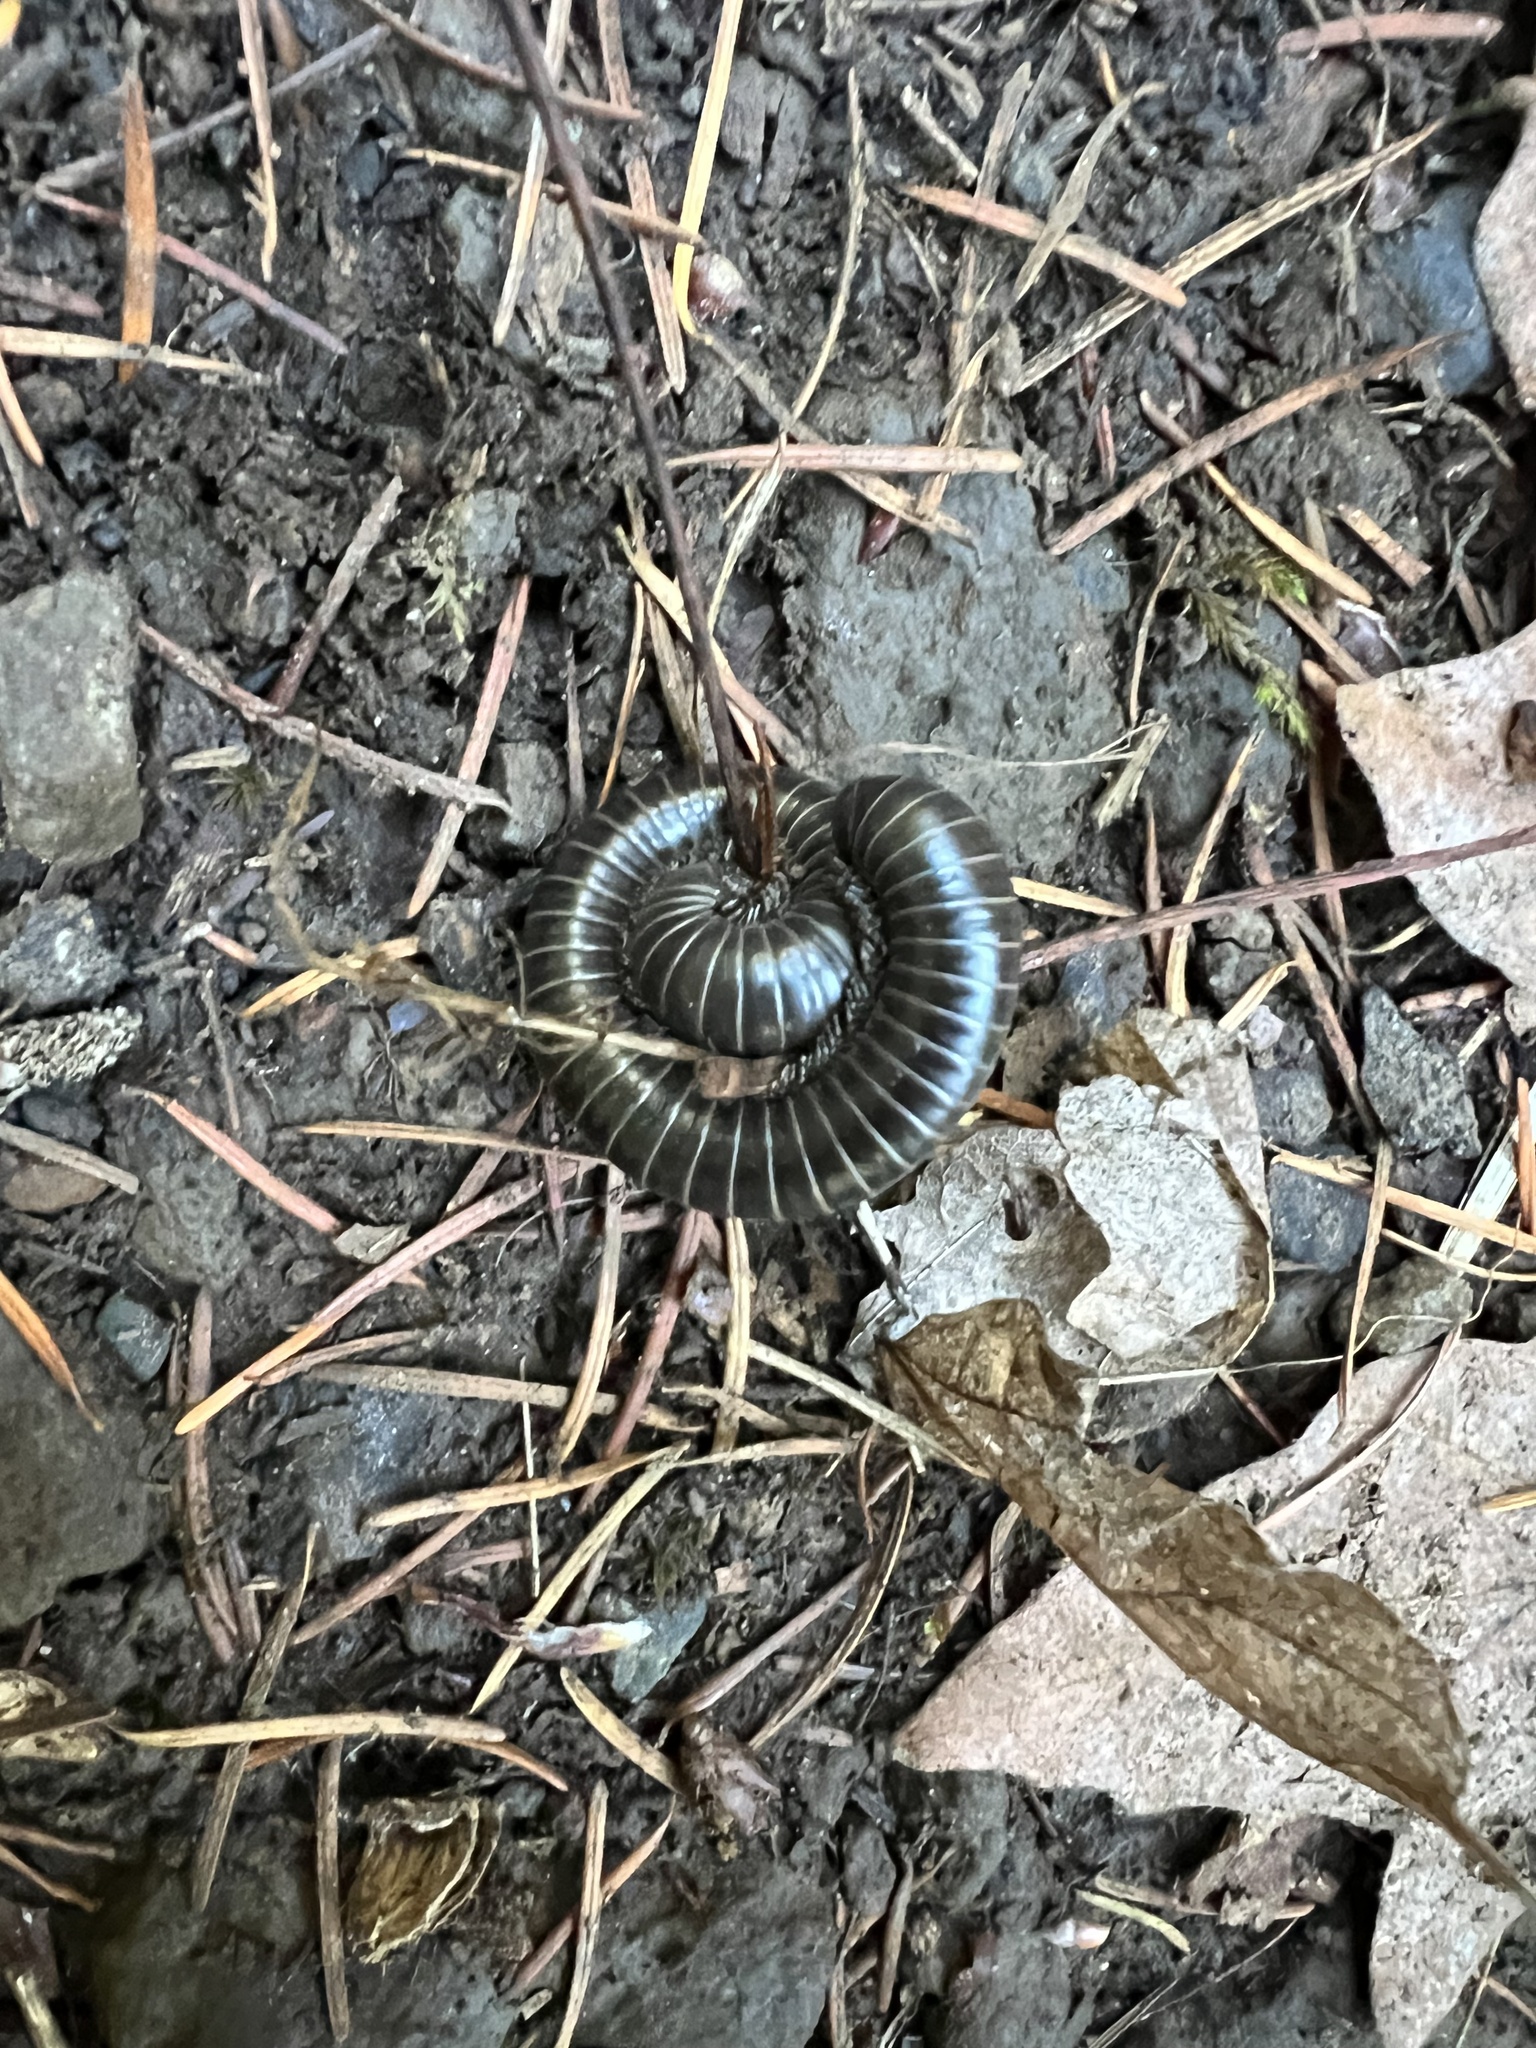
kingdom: Animalia
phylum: Arthropoda
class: Diplopoda
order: Spirobolida
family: Spirobolidae
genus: Tylobolus
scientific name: Tylobolus uncigerus
